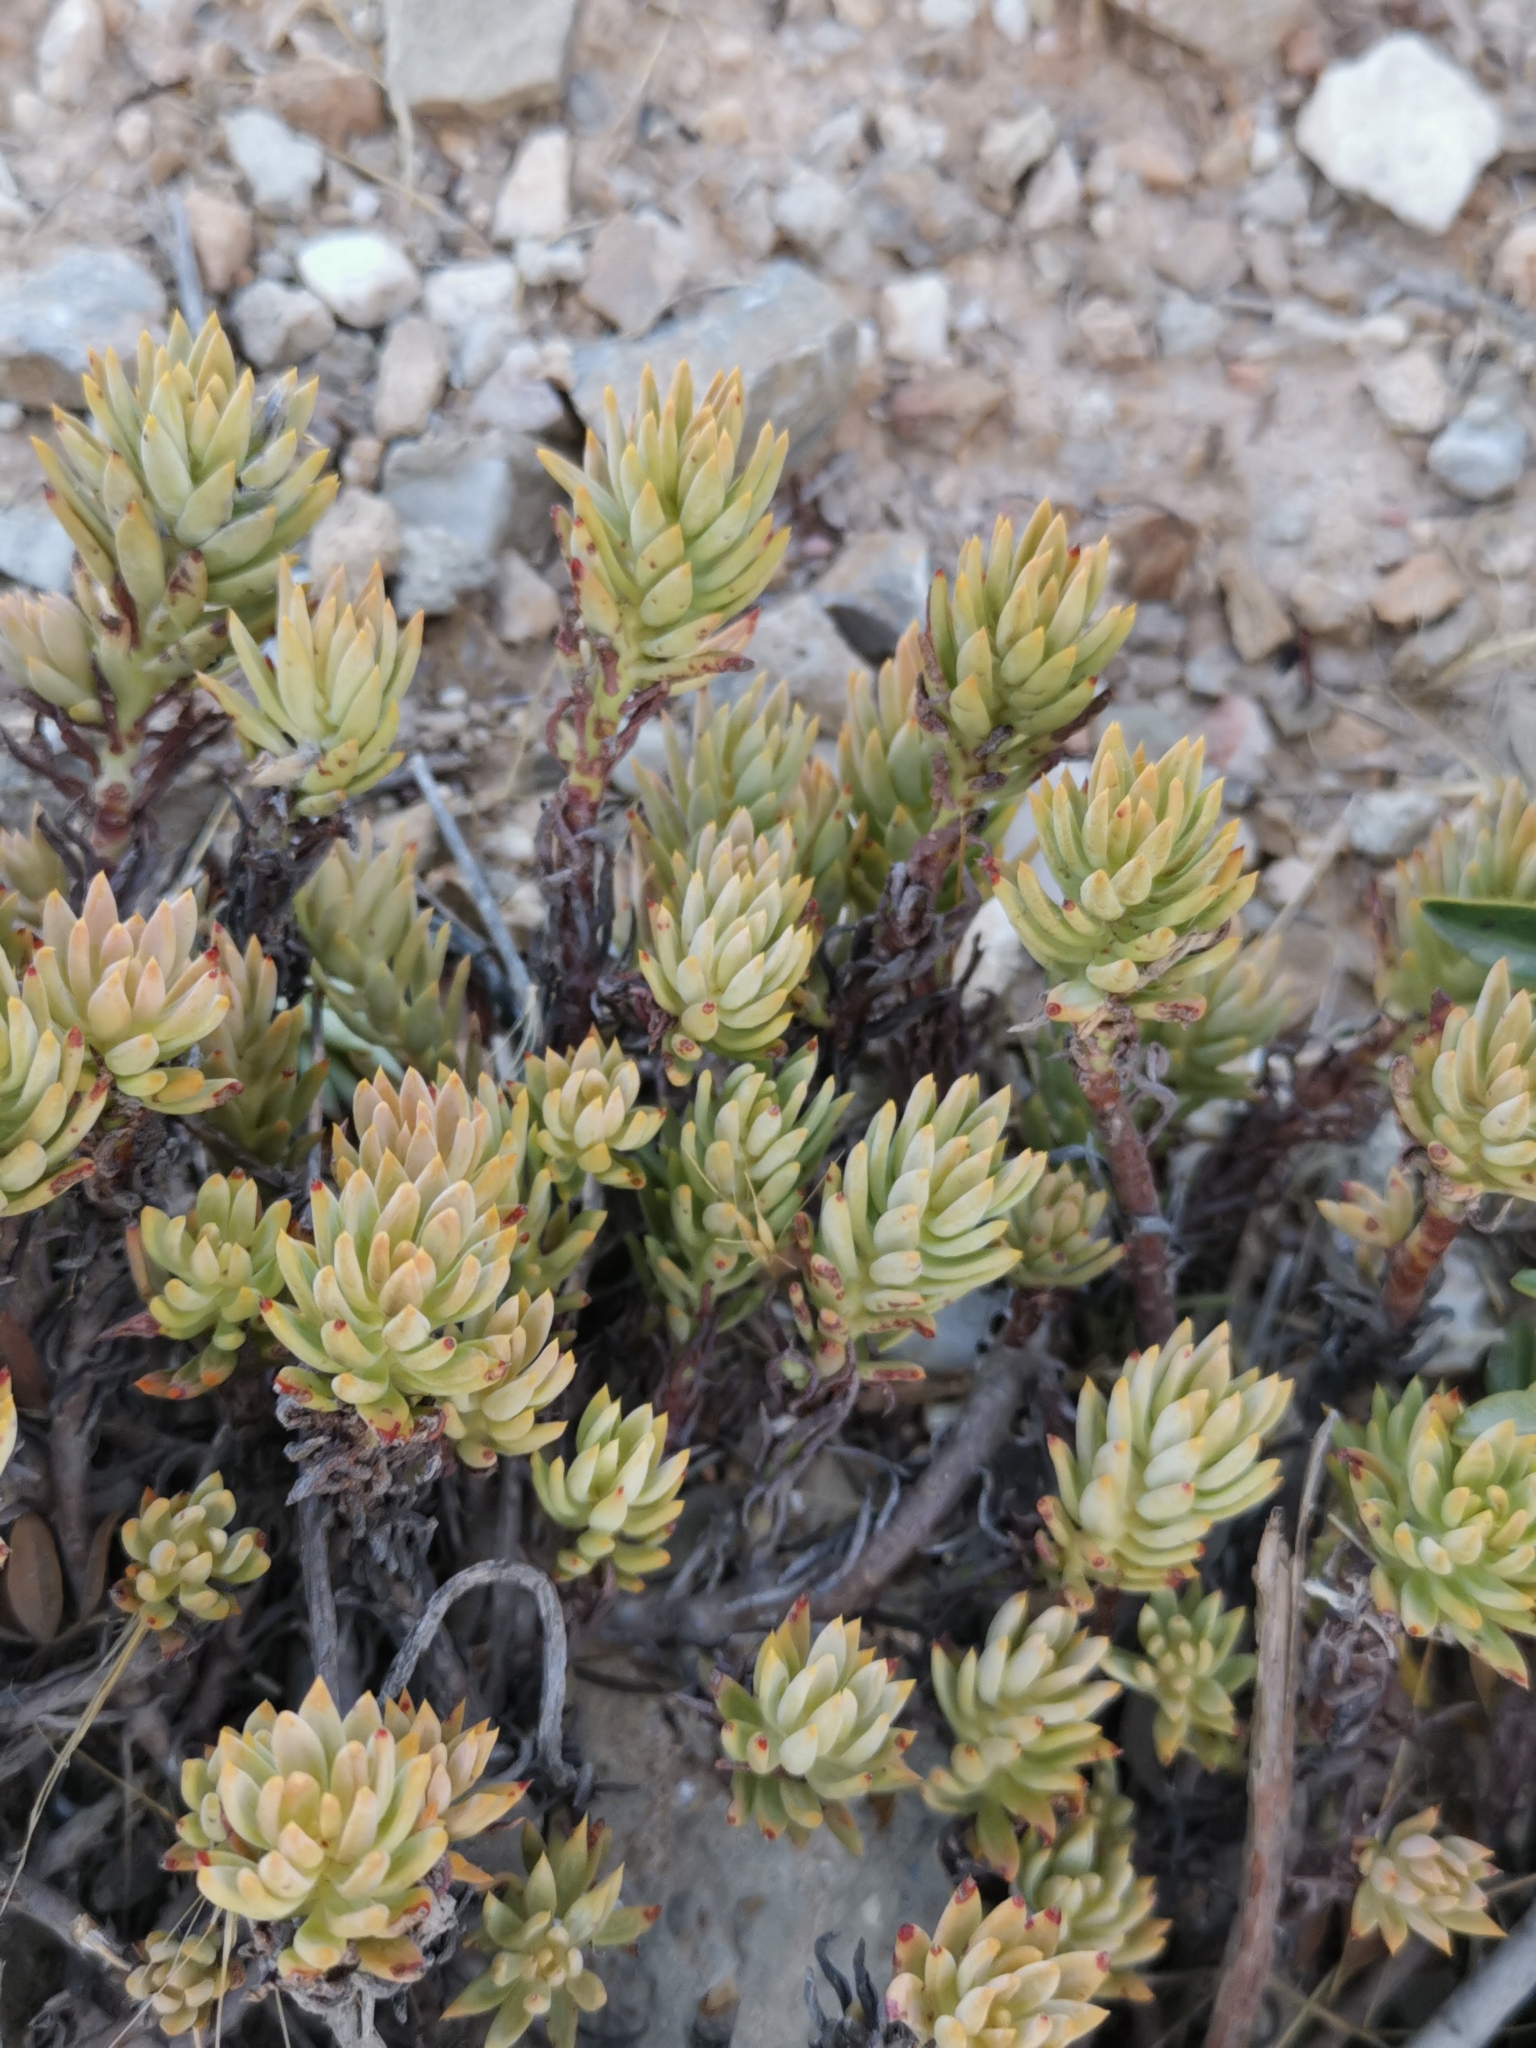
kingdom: Plantae
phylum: Tracheophyta
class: Magnoliopsida
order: Saxifragales
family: Crassulaceae
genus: Petrosedum
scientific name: Petrosedum sediforme
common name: Pale stonecrop
